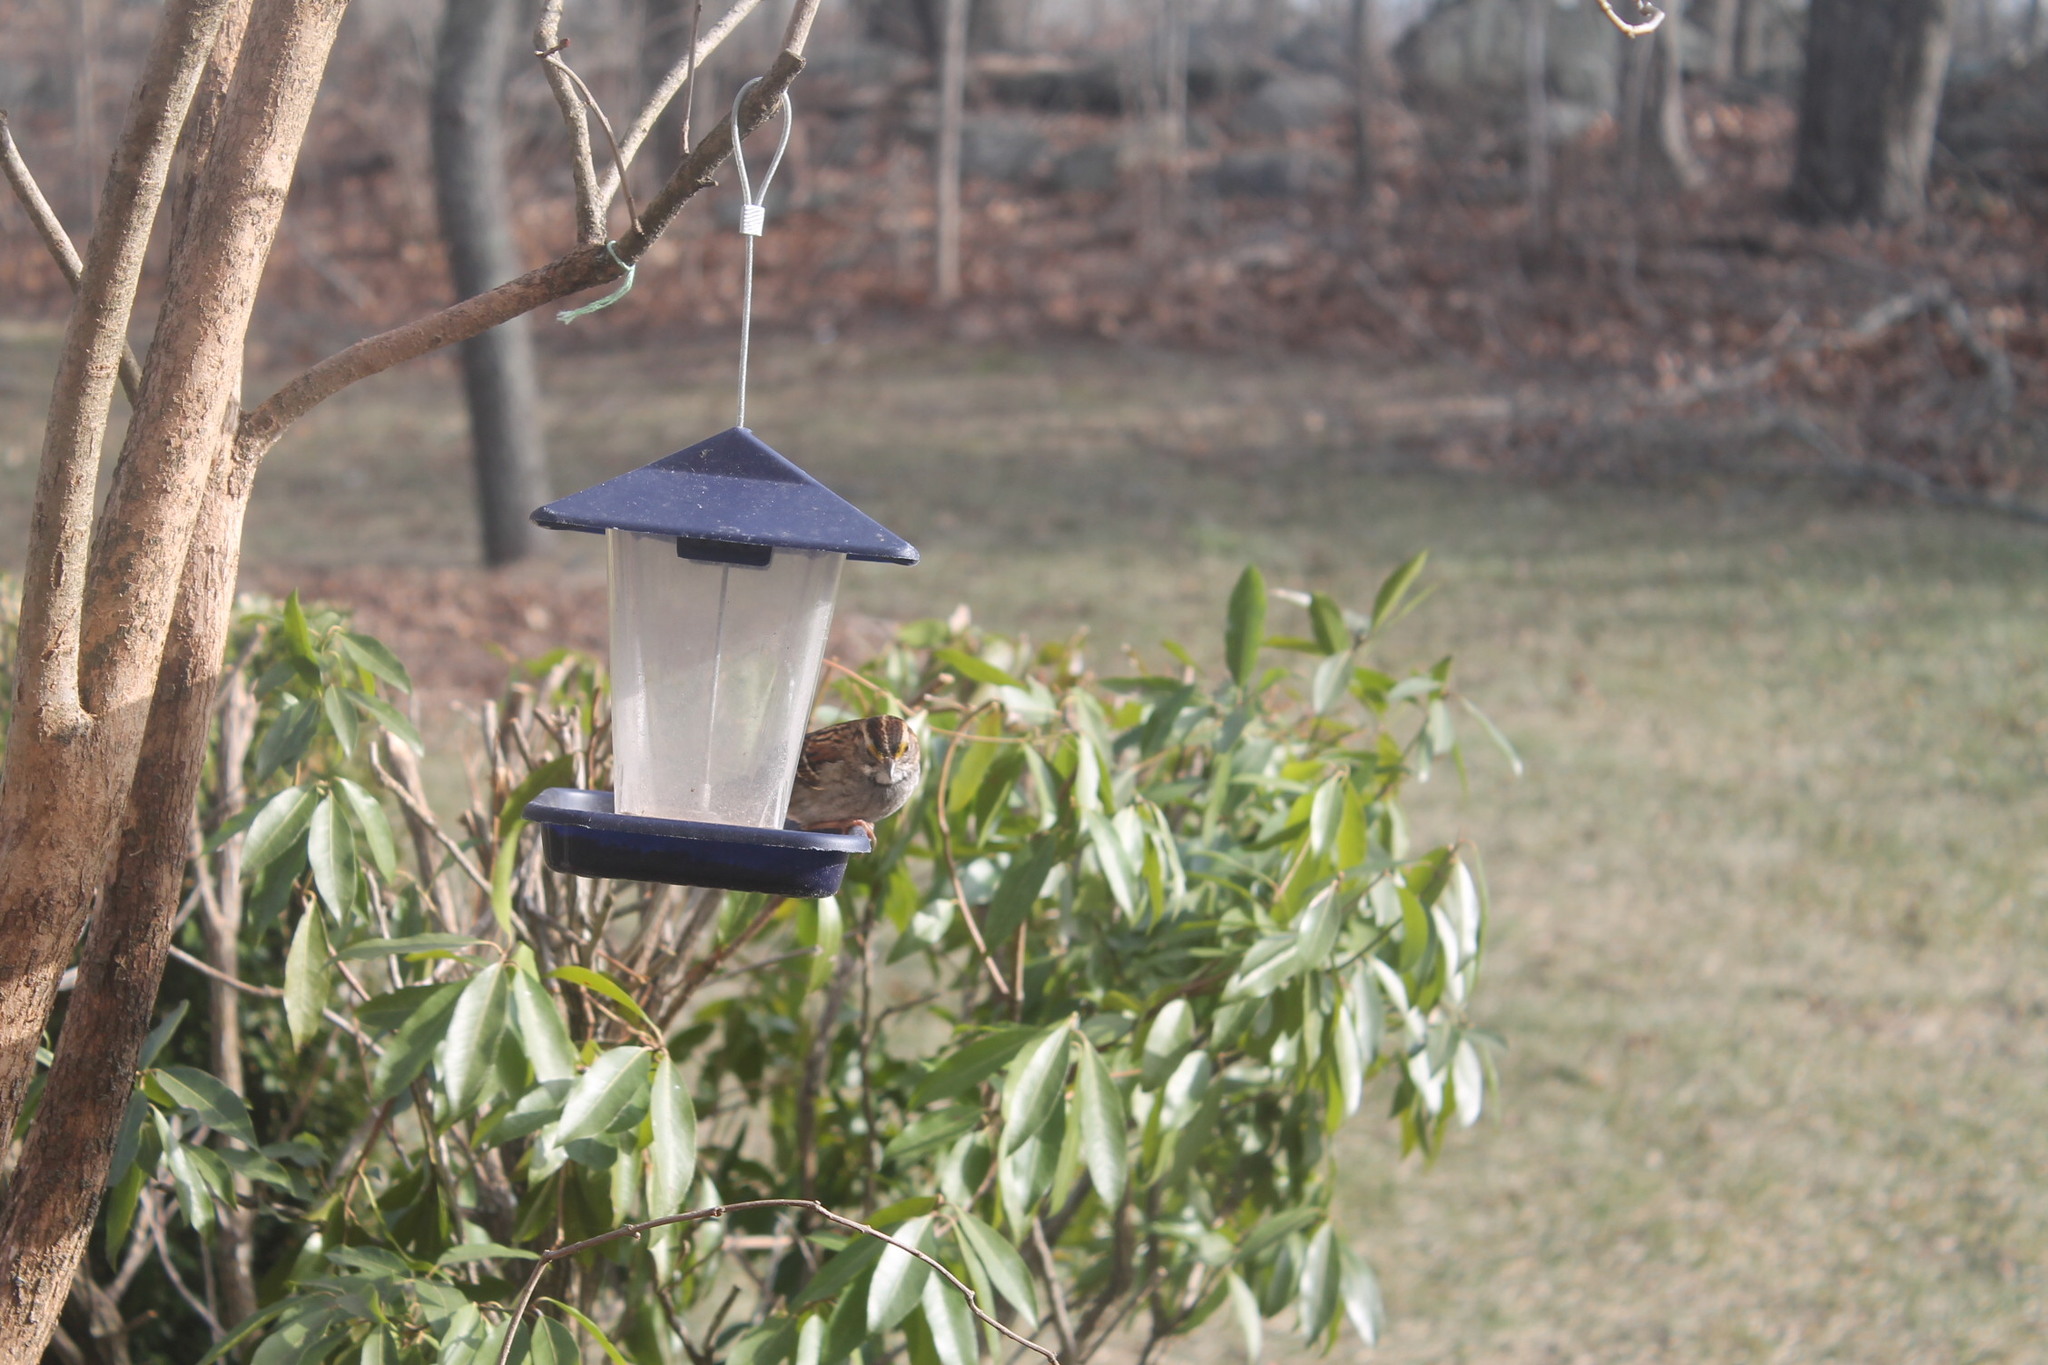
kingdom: Animalia
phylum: Chordata
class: Aves
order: Passeriformes
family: Passerellidae
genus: Zonotrichia
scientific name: Zonotrichia albicollis
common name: White-throated sparrow
